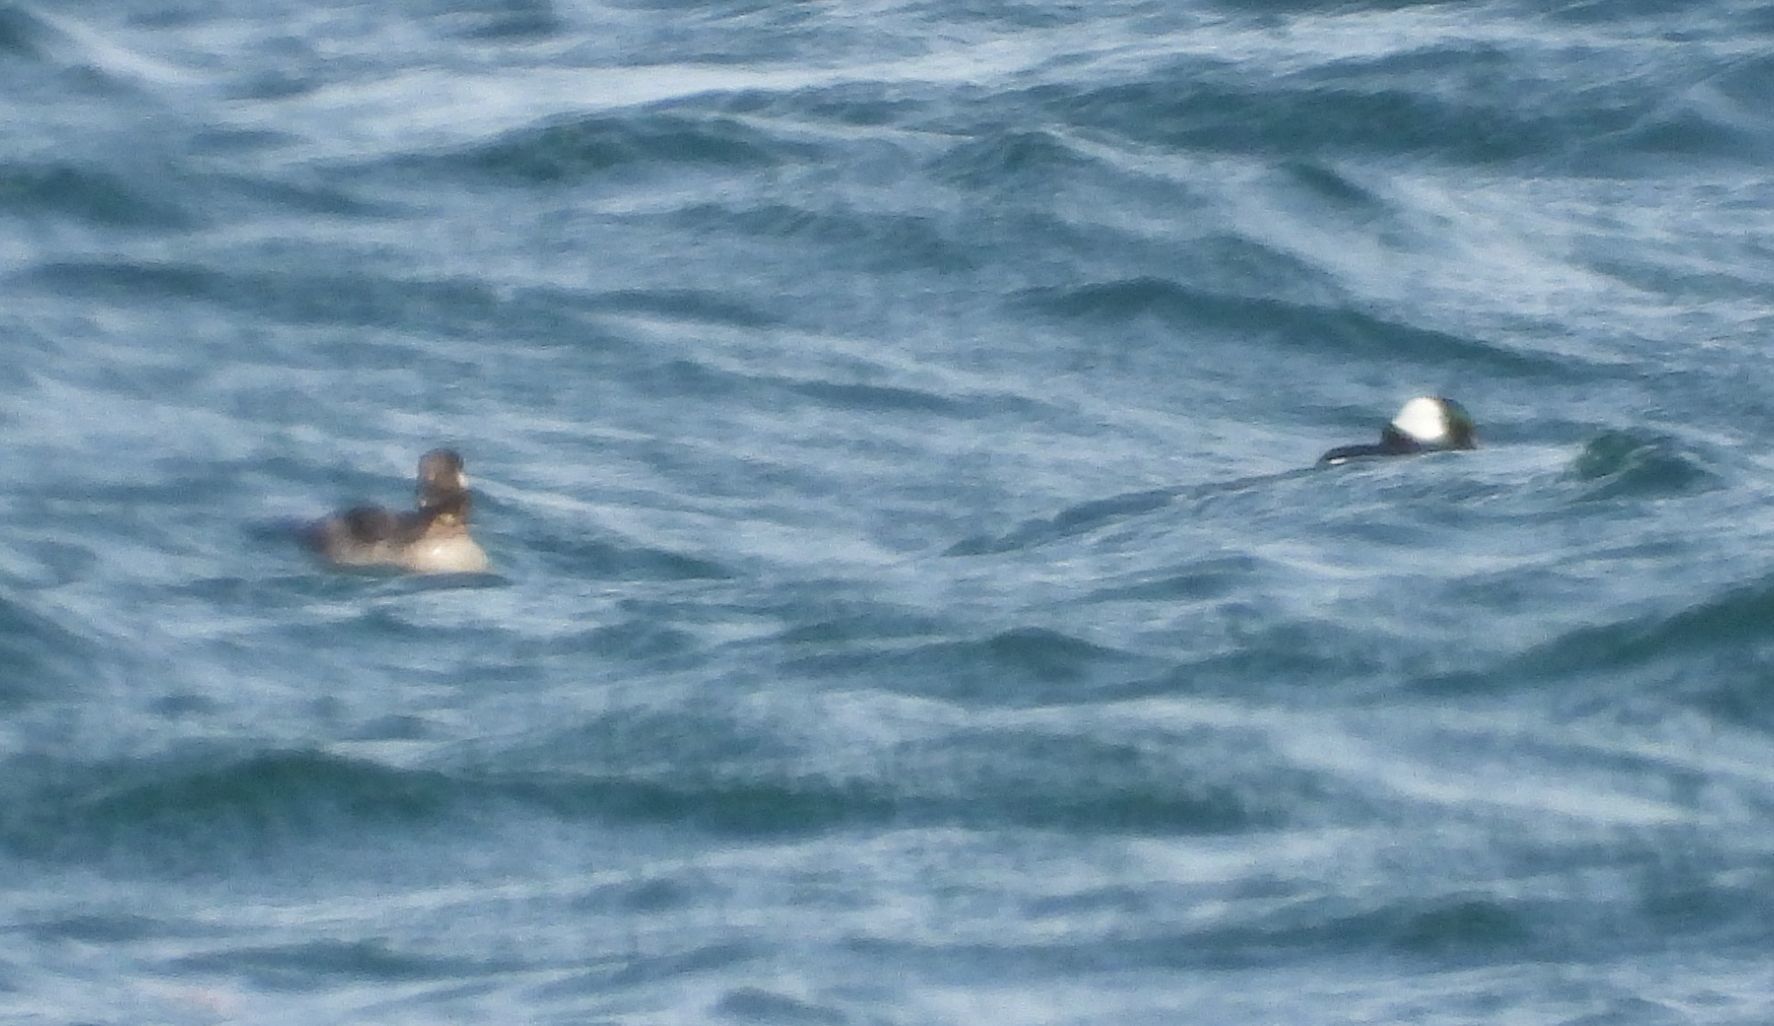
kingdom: Animalia
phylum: Chordata
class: Aves
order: Anseriformes
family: Anatidae
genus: Bucephala
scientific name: Bucephala albeola
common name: Bufflehead
